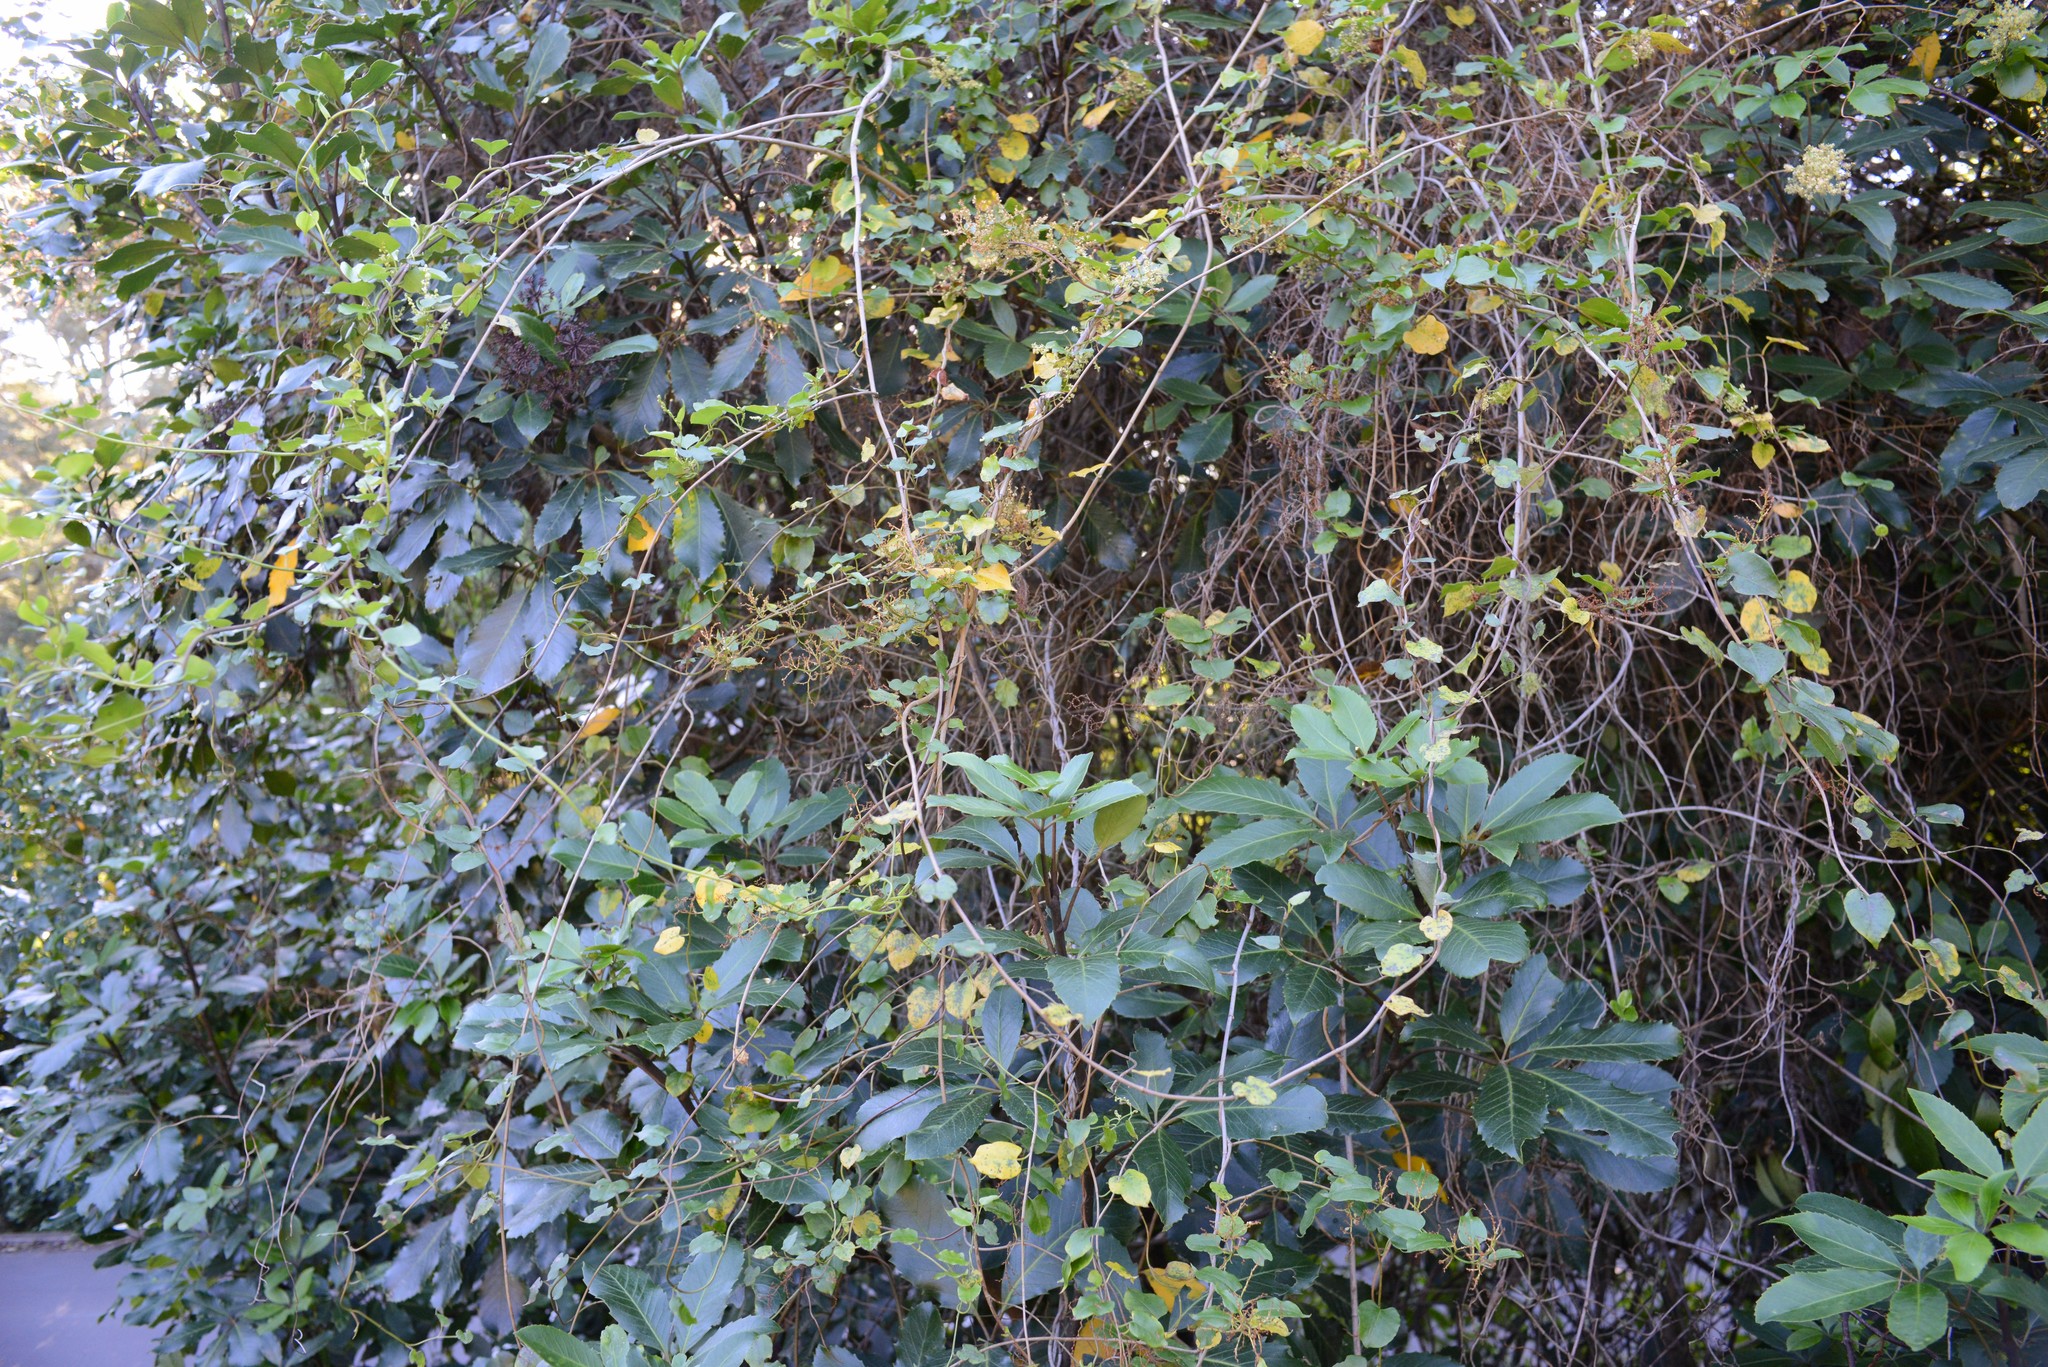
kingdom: Plantae
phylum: Tracheophyta
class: Magnoliopsida
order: Caryophyllales
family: Polygonaceae
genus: Muehlenbeckia
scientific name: Muehlenbeckia australis
